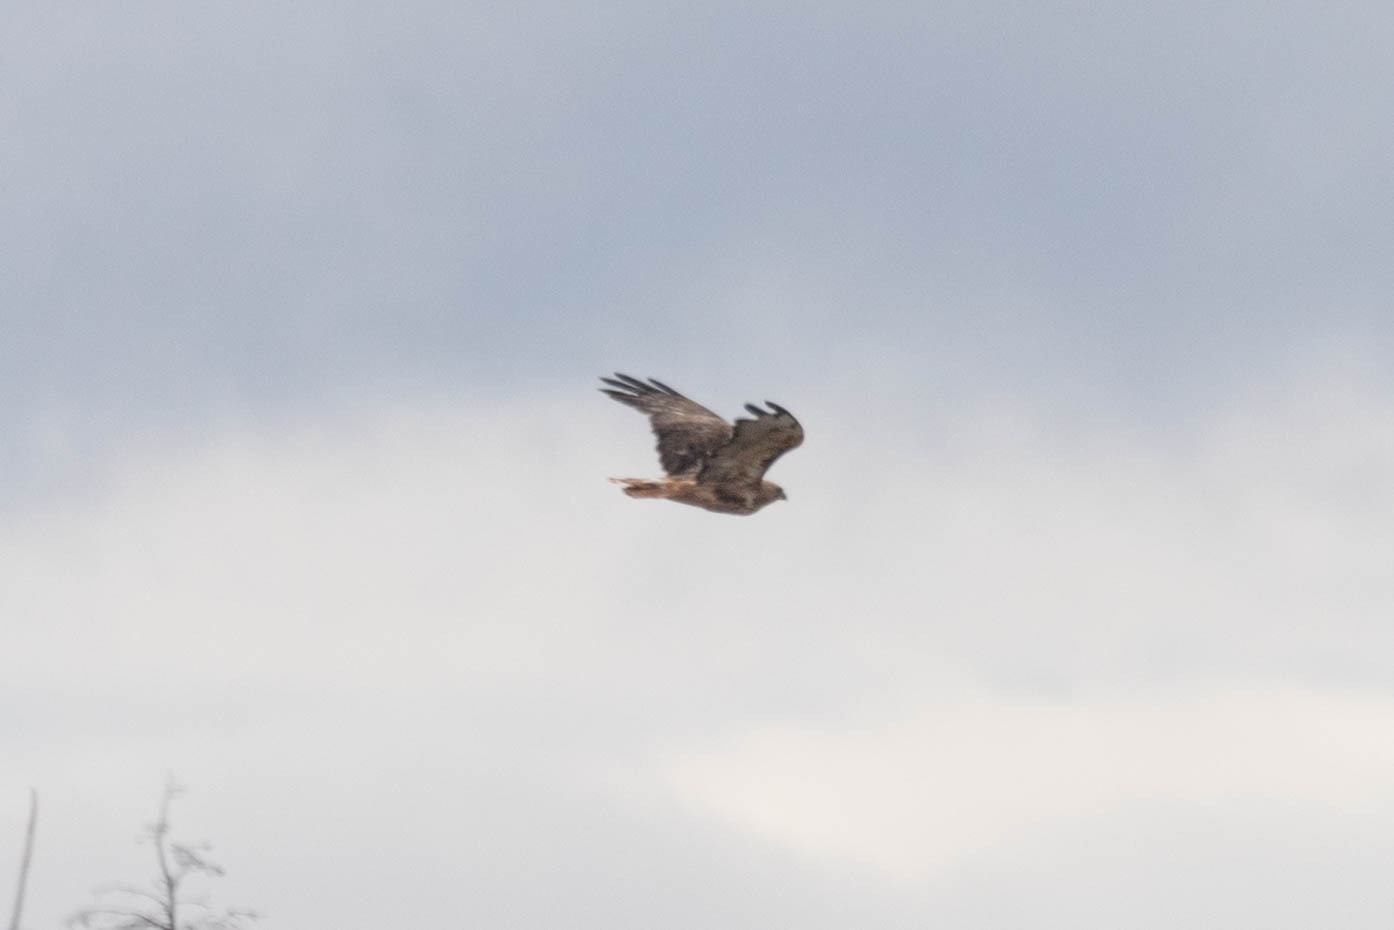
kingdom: Animalia
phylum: Chordata
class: Aves
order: Accipitriformes
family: Accipitridae
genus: Buteo
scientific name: Buteo jamaicensis
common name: Red-tailed hawk
